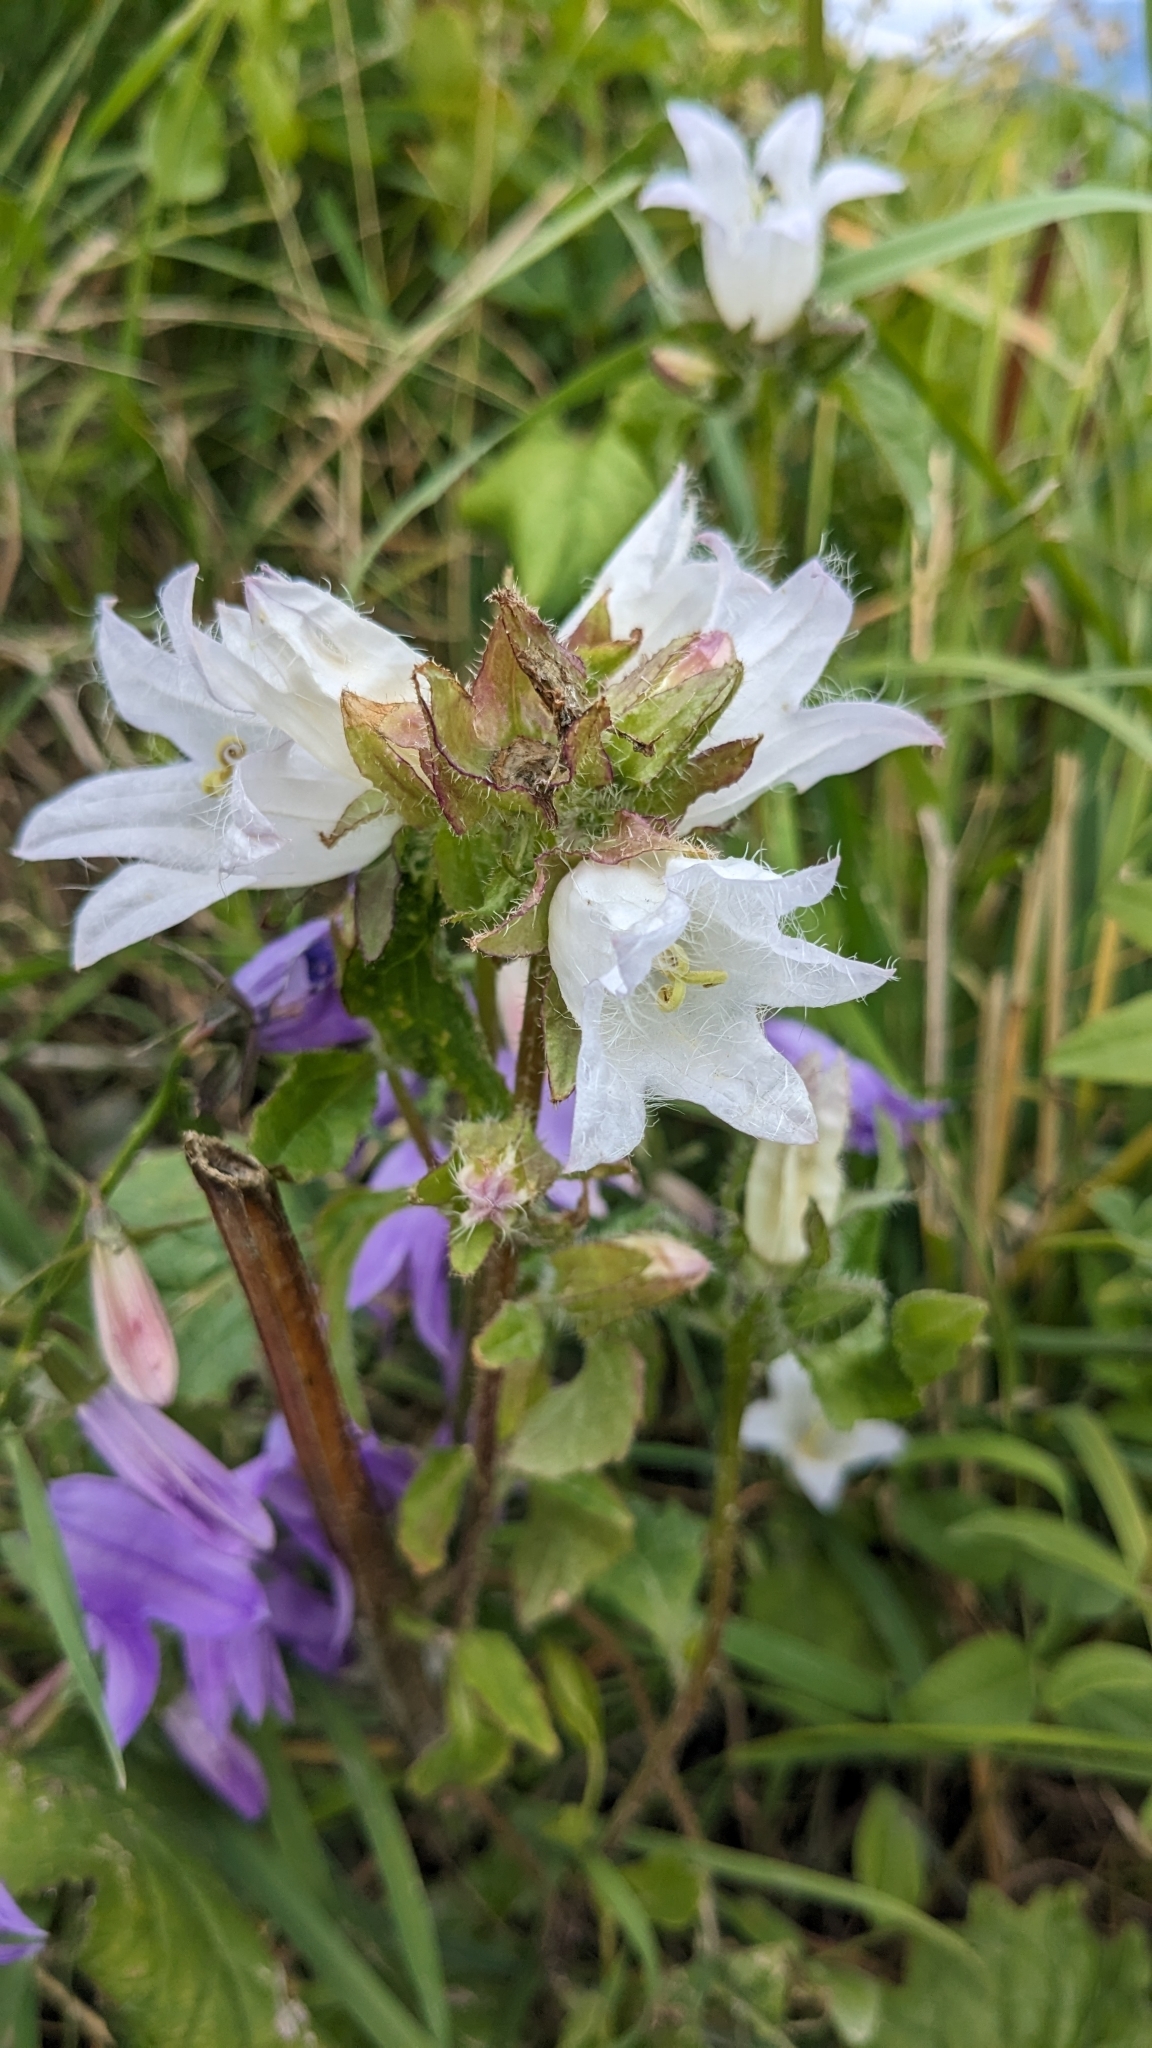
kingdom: Plantae
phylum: Tracheophyta
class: Magnoliopsida
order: Asterales
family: Campanulaceae
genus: Campanula
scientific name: Campanula trachelium
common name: Nettle-leaved bellflower
